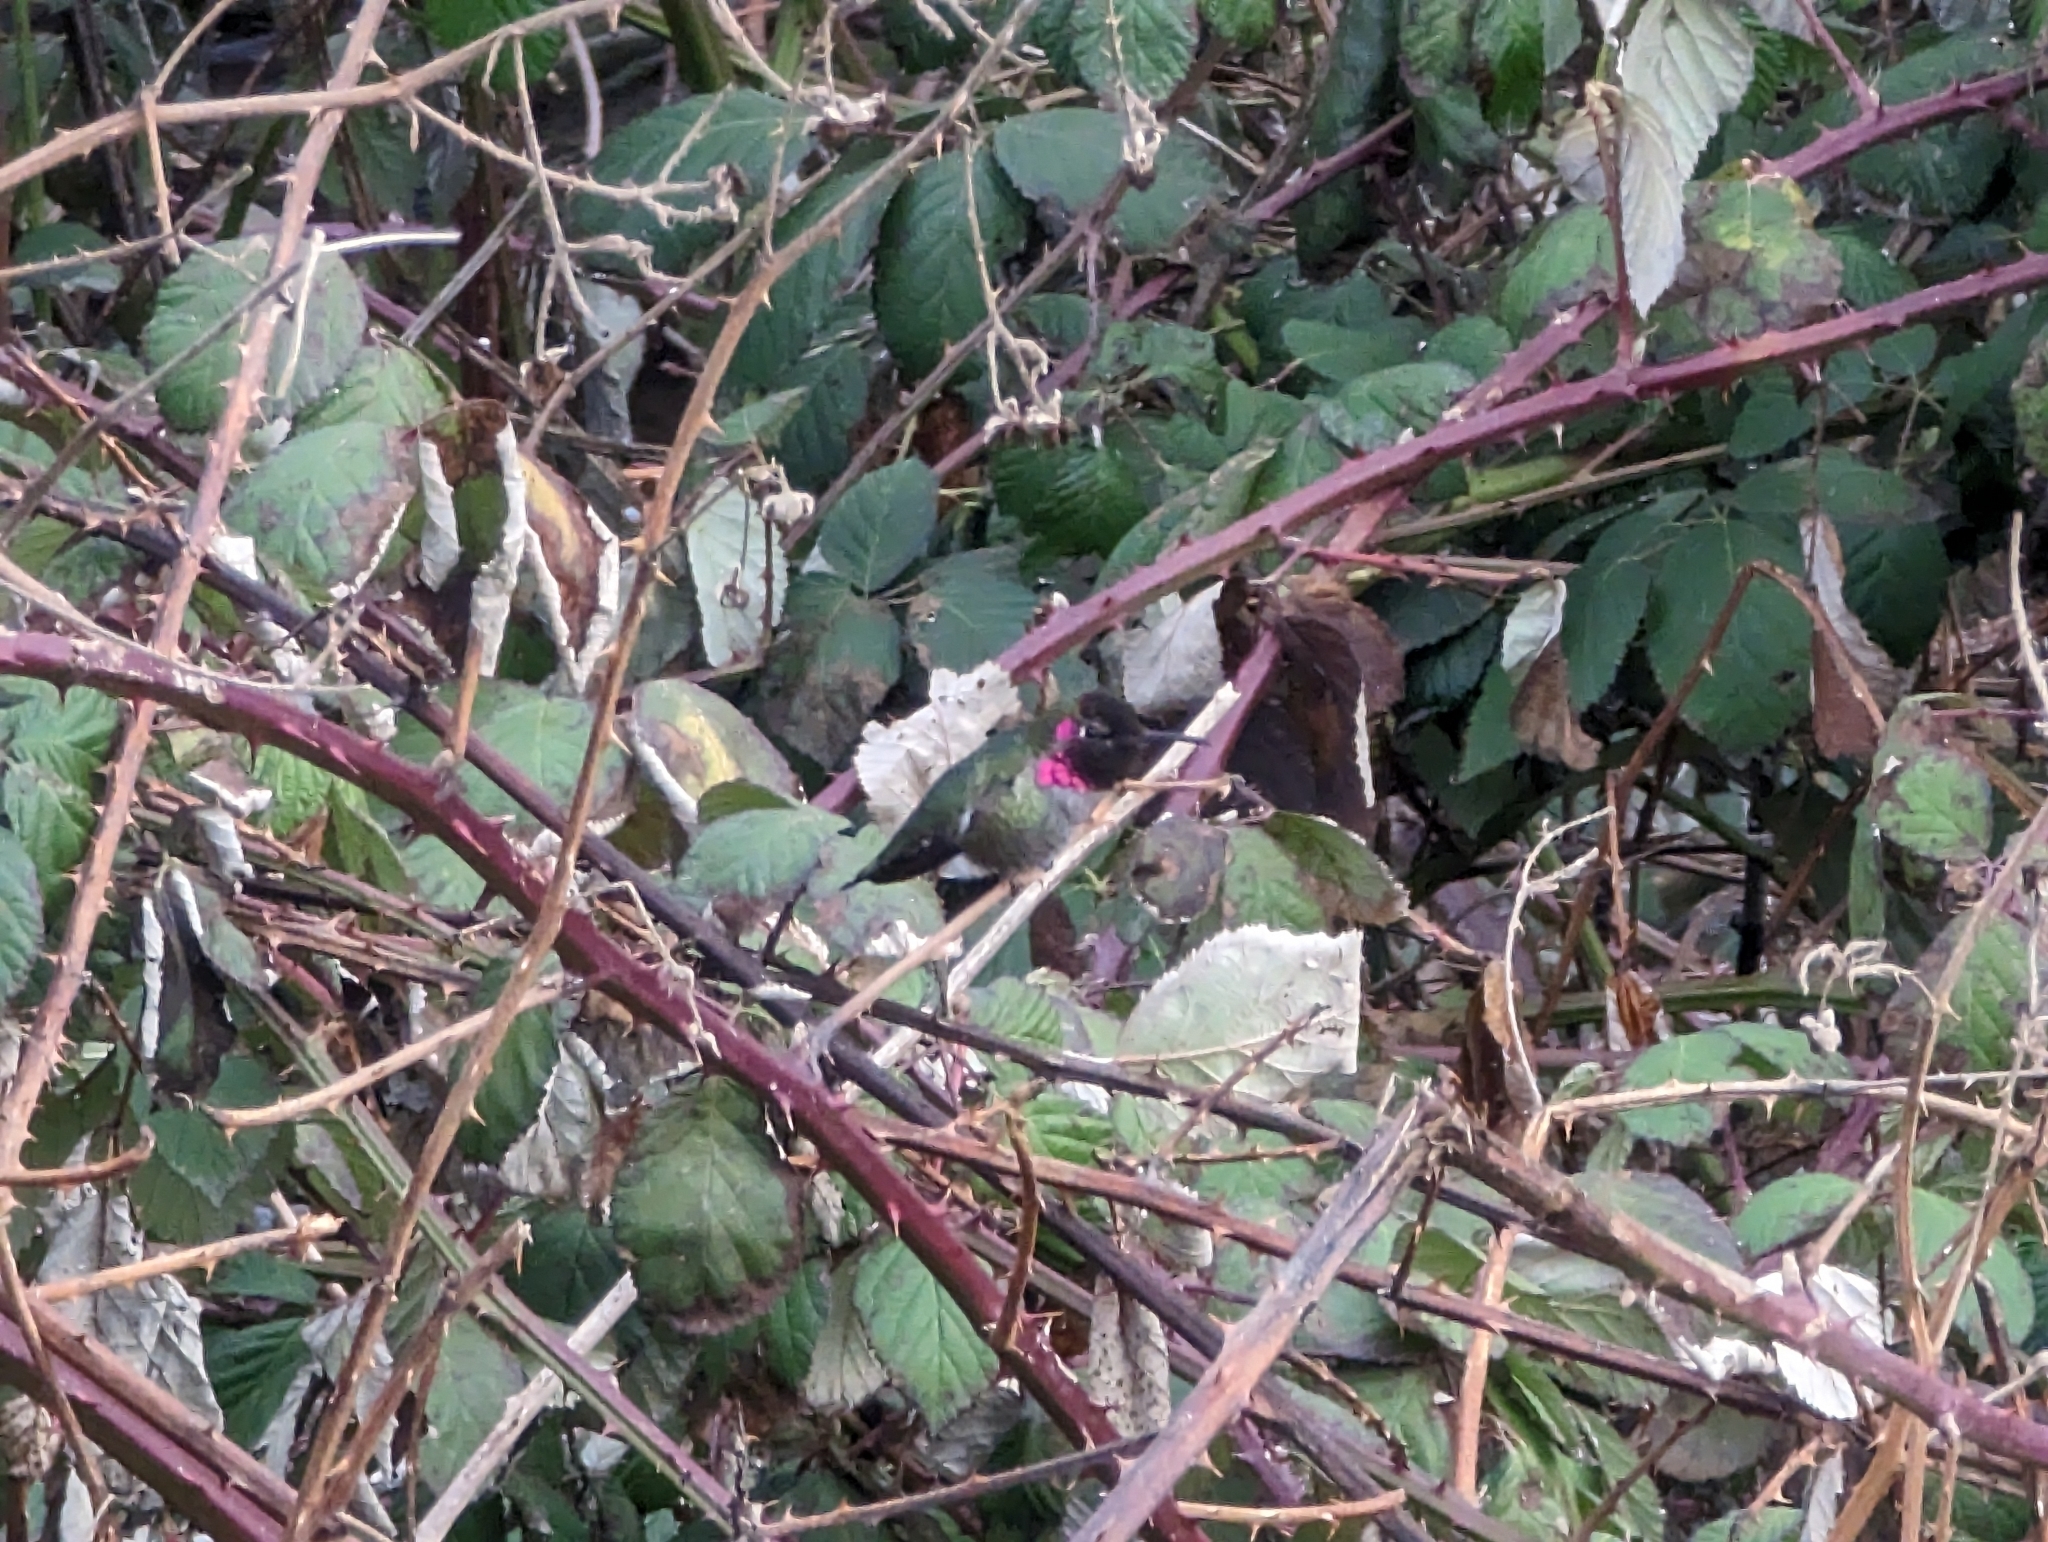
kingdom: Animalia
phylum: Chordata
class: Aves
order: Apodiformes
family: Trochilidae
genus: Calypte
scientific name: Calypte anna
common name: Anna's hummingbird
